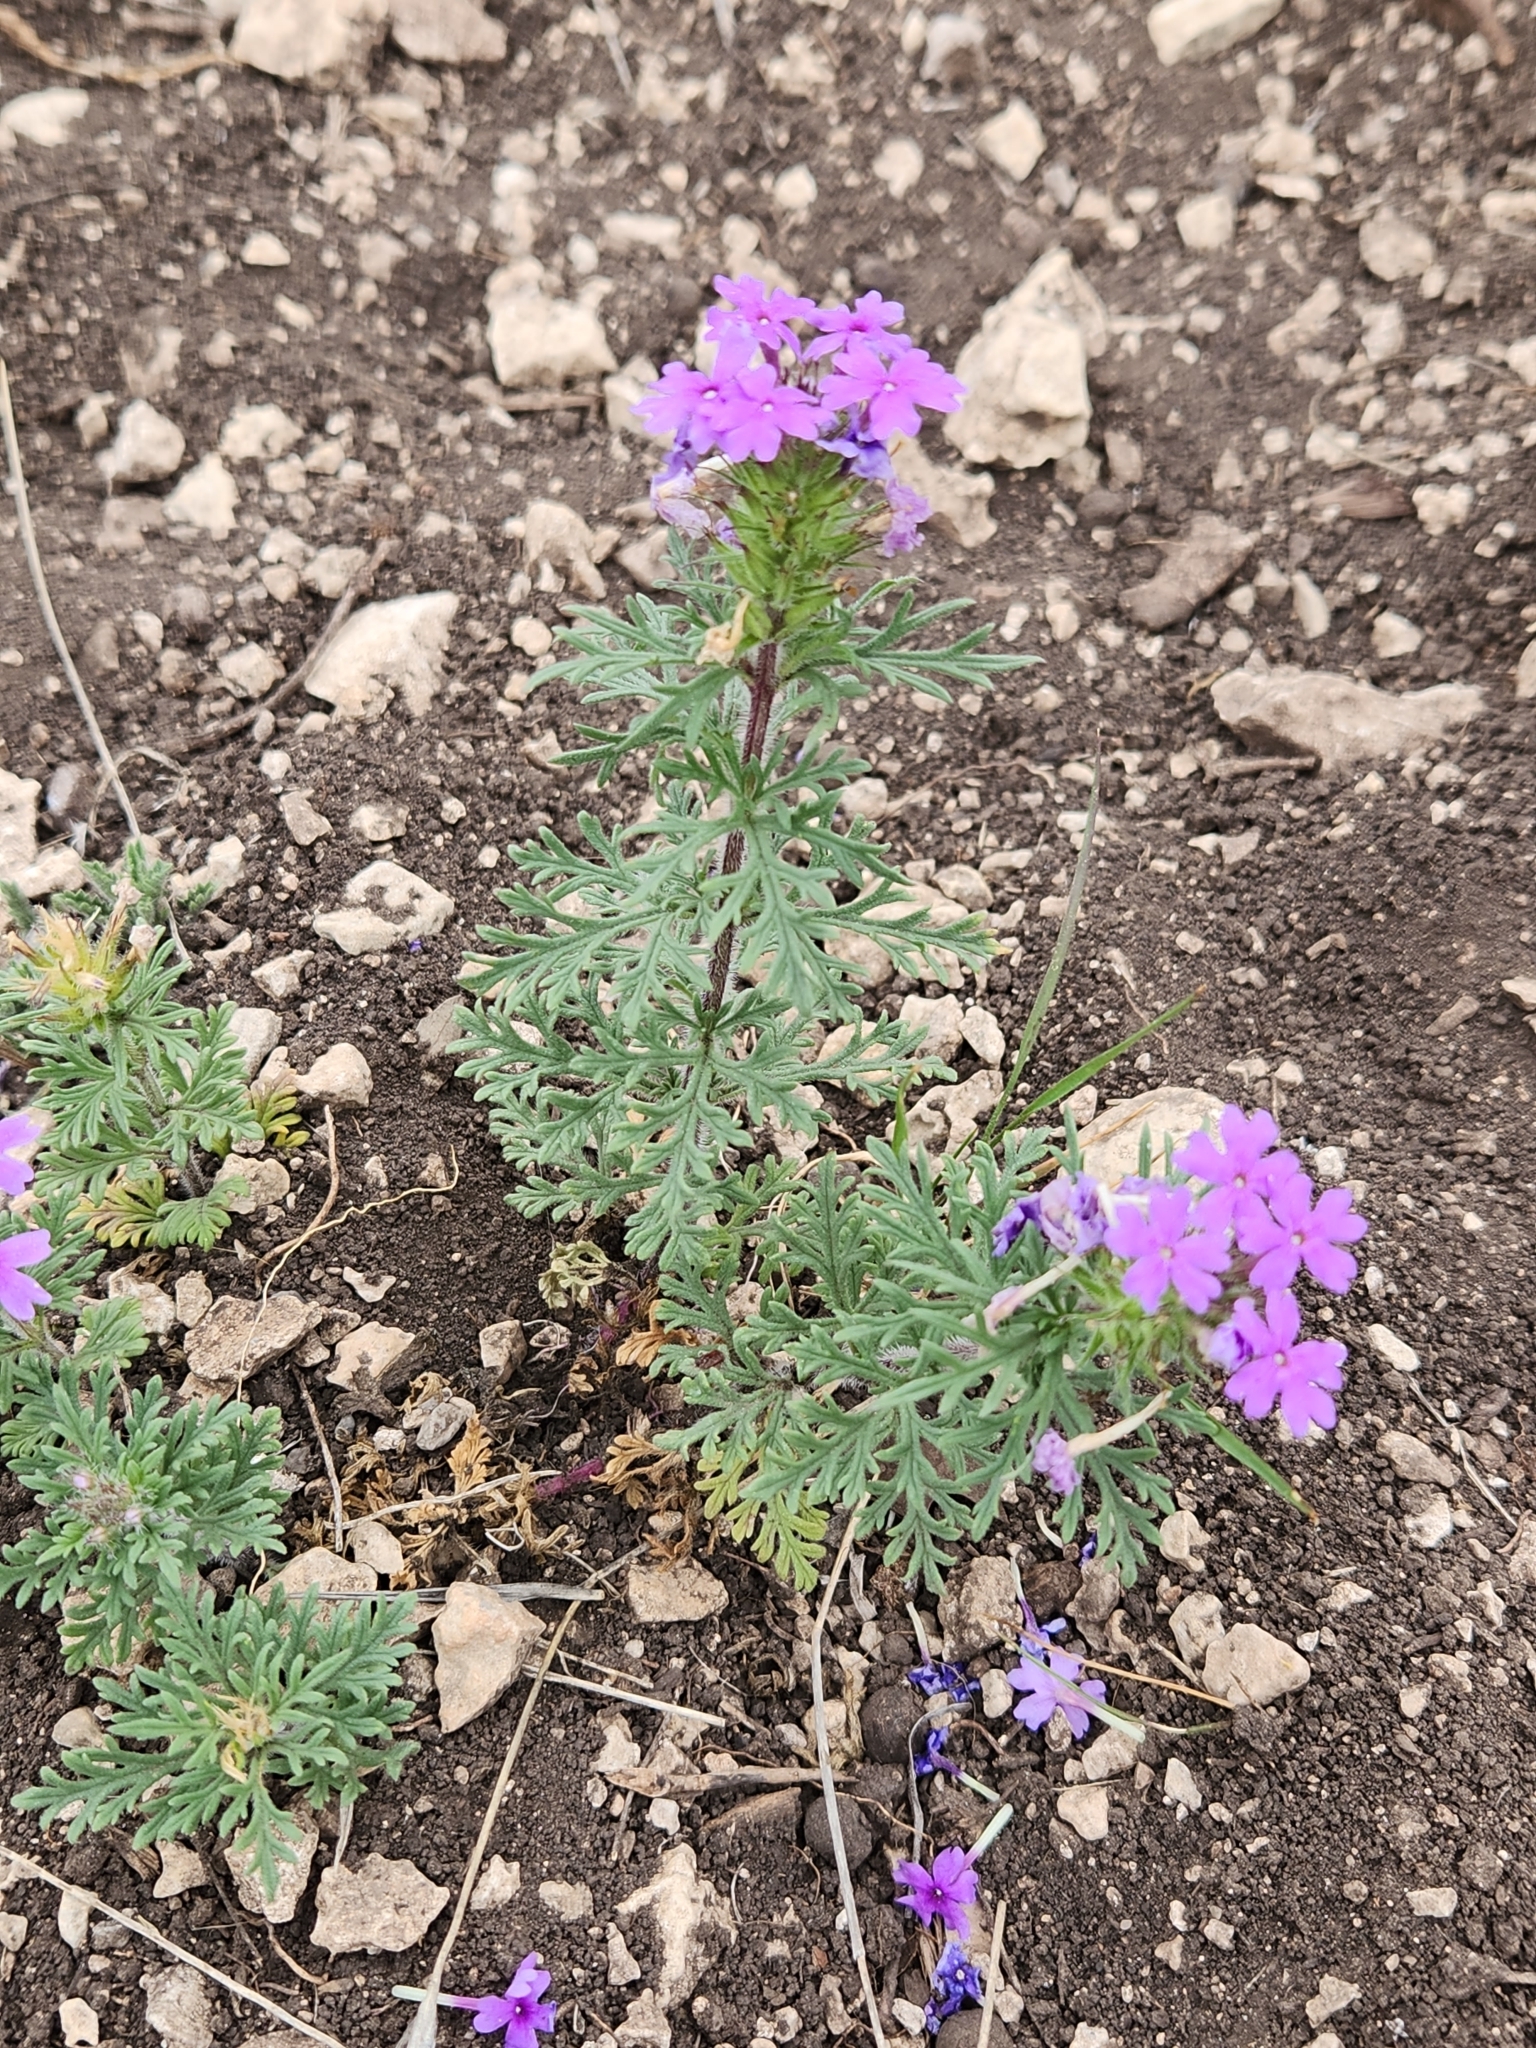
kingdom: Plantae
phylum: Tracheophyta
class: Magnoliopsida
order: Lamiales
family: Verbenaceae
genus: Verbena
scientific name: Verbena bipinnatifida
